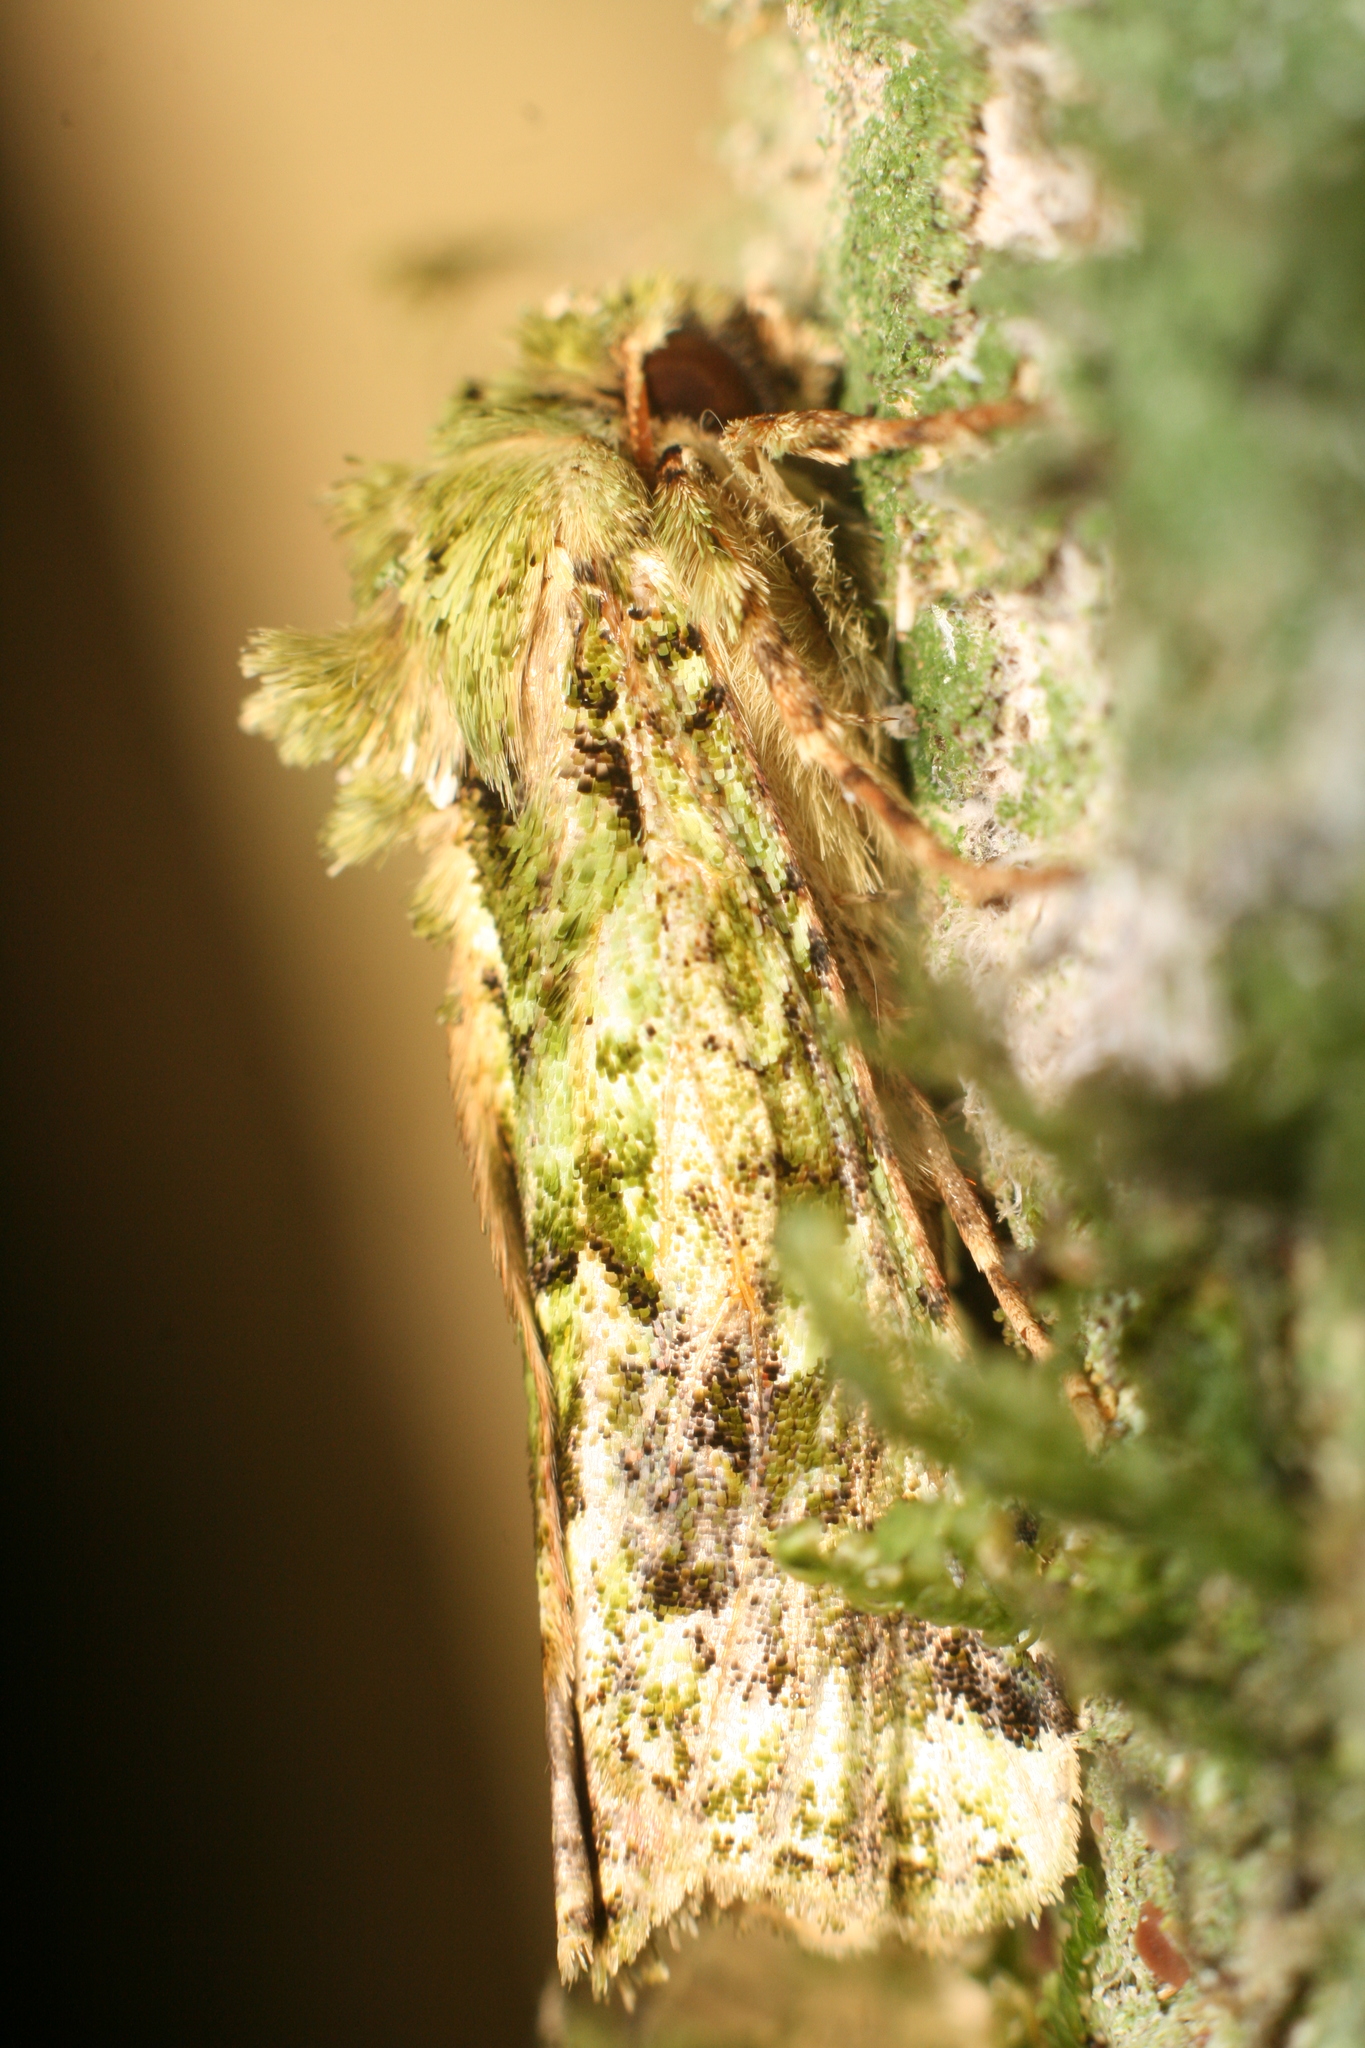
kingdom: Animalia
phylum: Arthropoda
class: Insecta
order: Lepidoptera
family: Noctuidae
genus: Feredayia
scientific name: Feredayia grammosa
